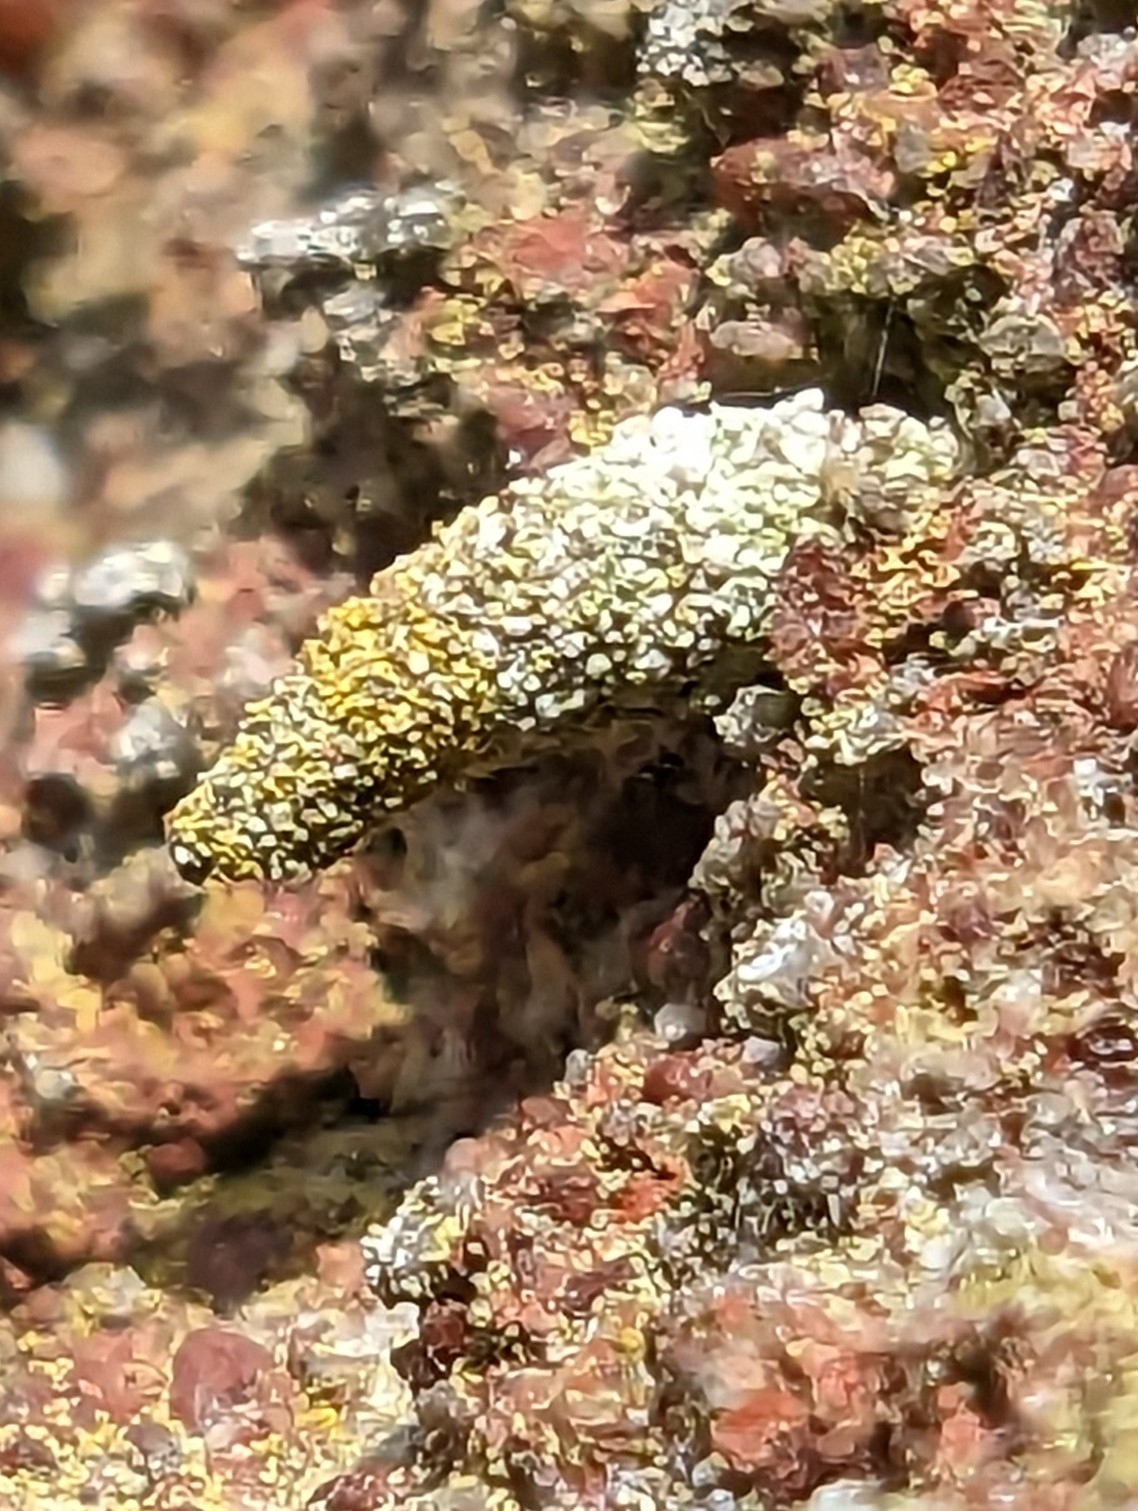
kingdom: Animalia
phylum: Arthropoda
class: Insecta
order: Lepidoptera
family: Psychidae
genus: Luffia
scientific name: Luffia lapidella
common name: Grey smoke
